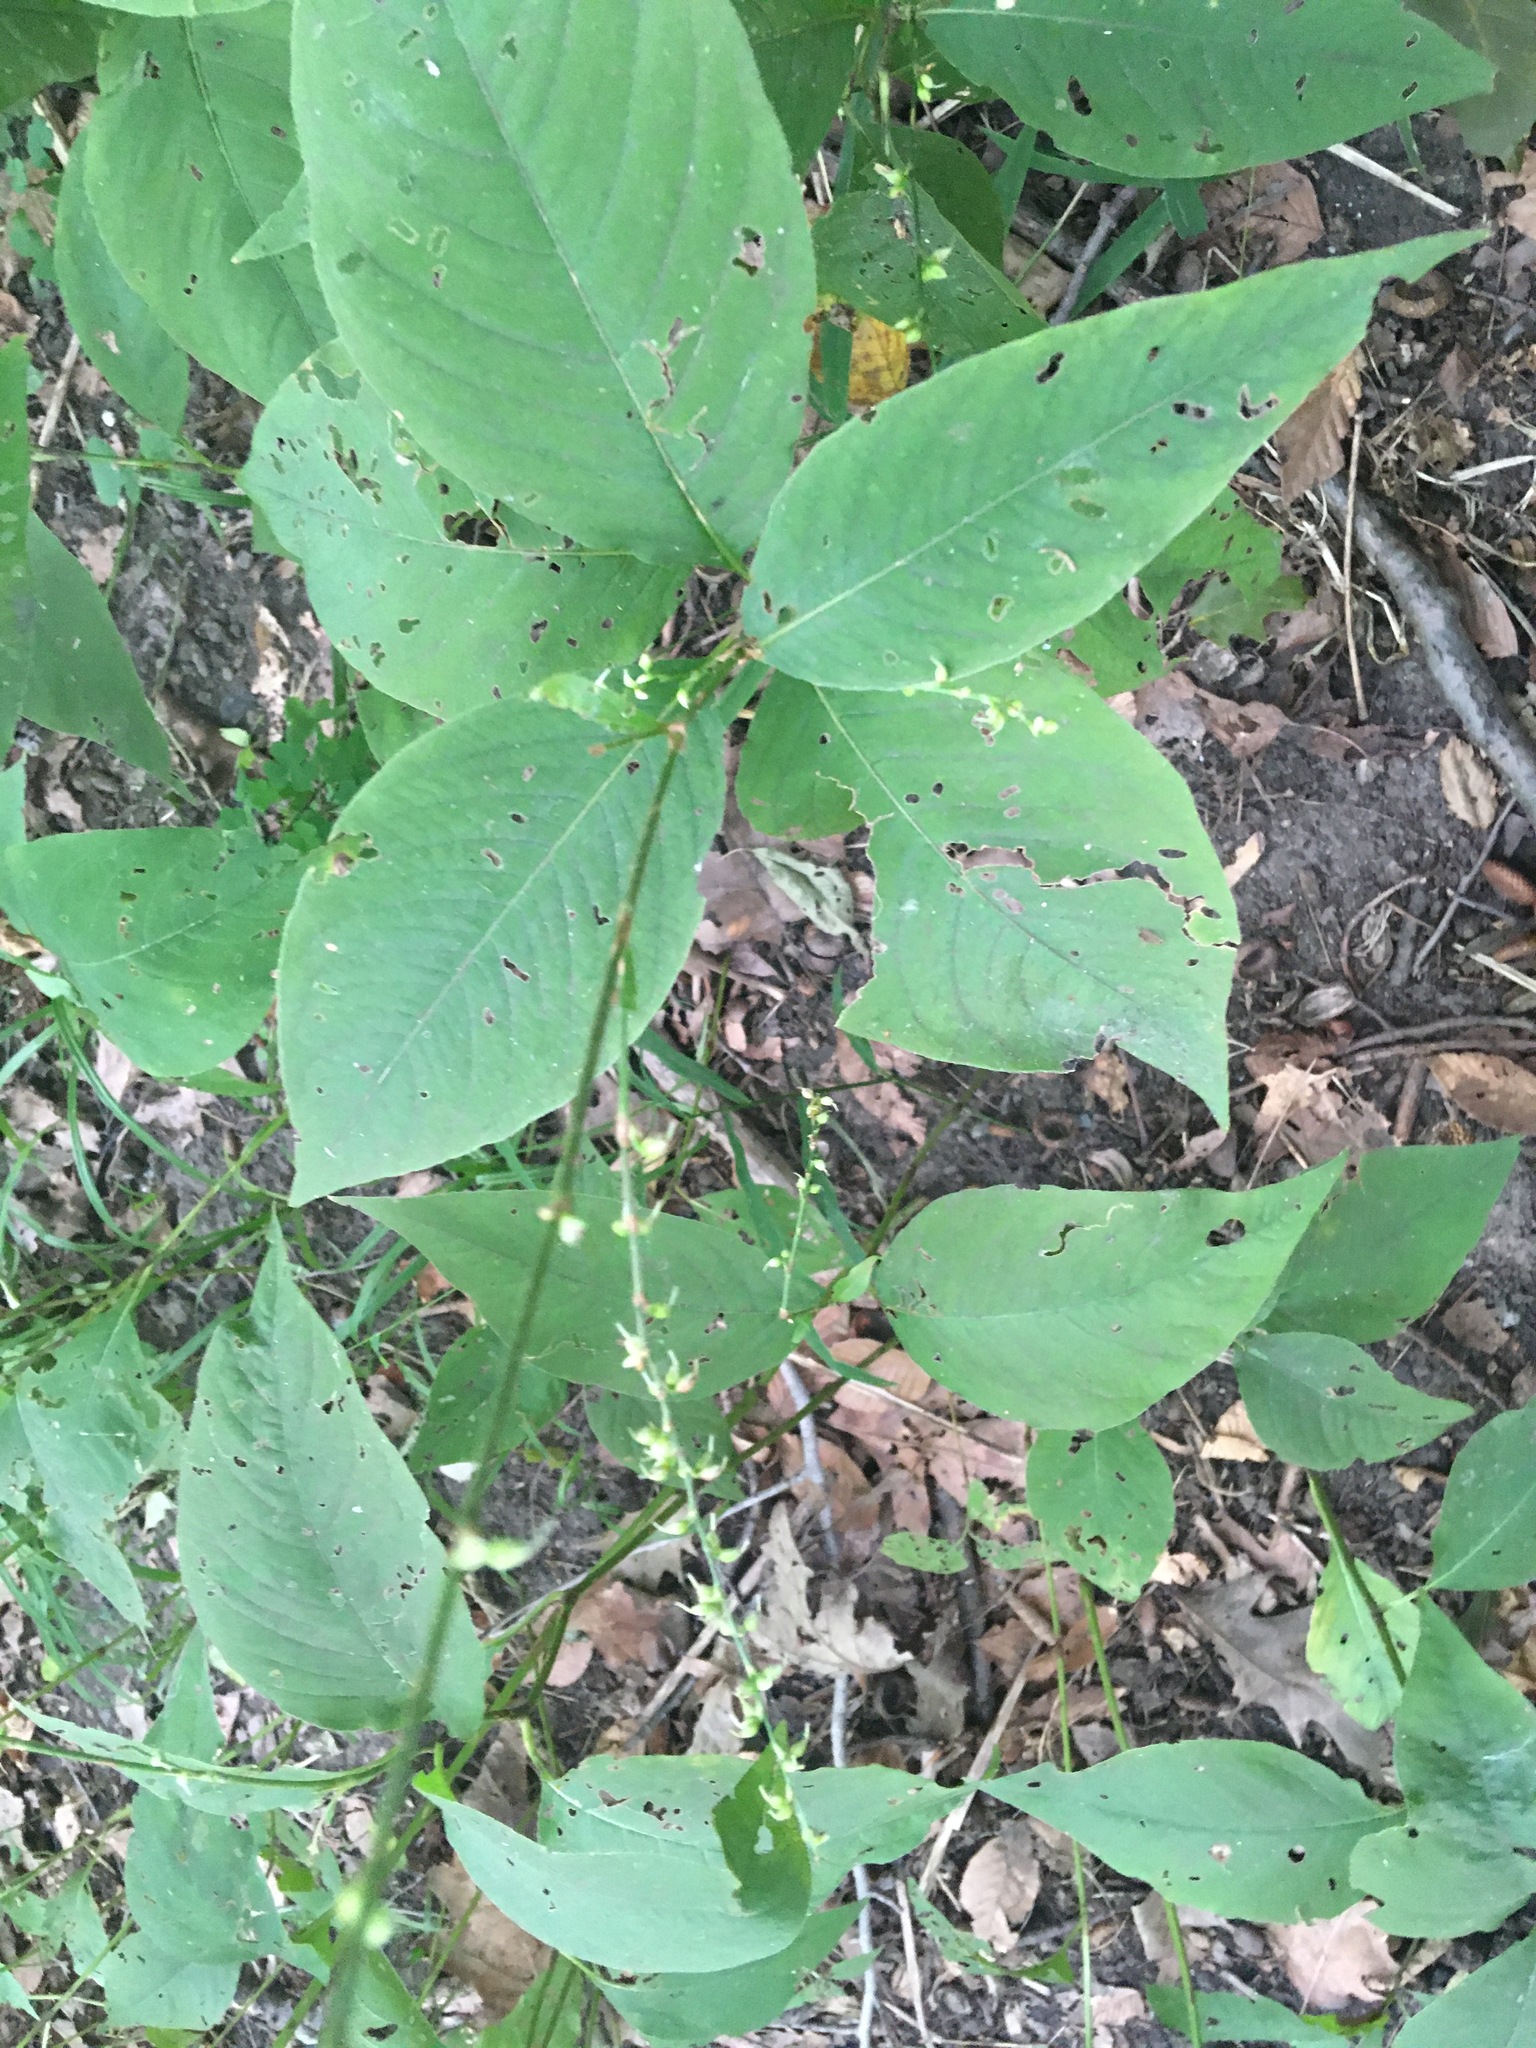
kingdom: Plantae
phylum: Tracheophyta
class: Magnoliopsida
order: Caryophyllales
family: Polygonaceae
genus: Persicaria
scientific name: Persicaria virginiana
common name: Jumpseed
